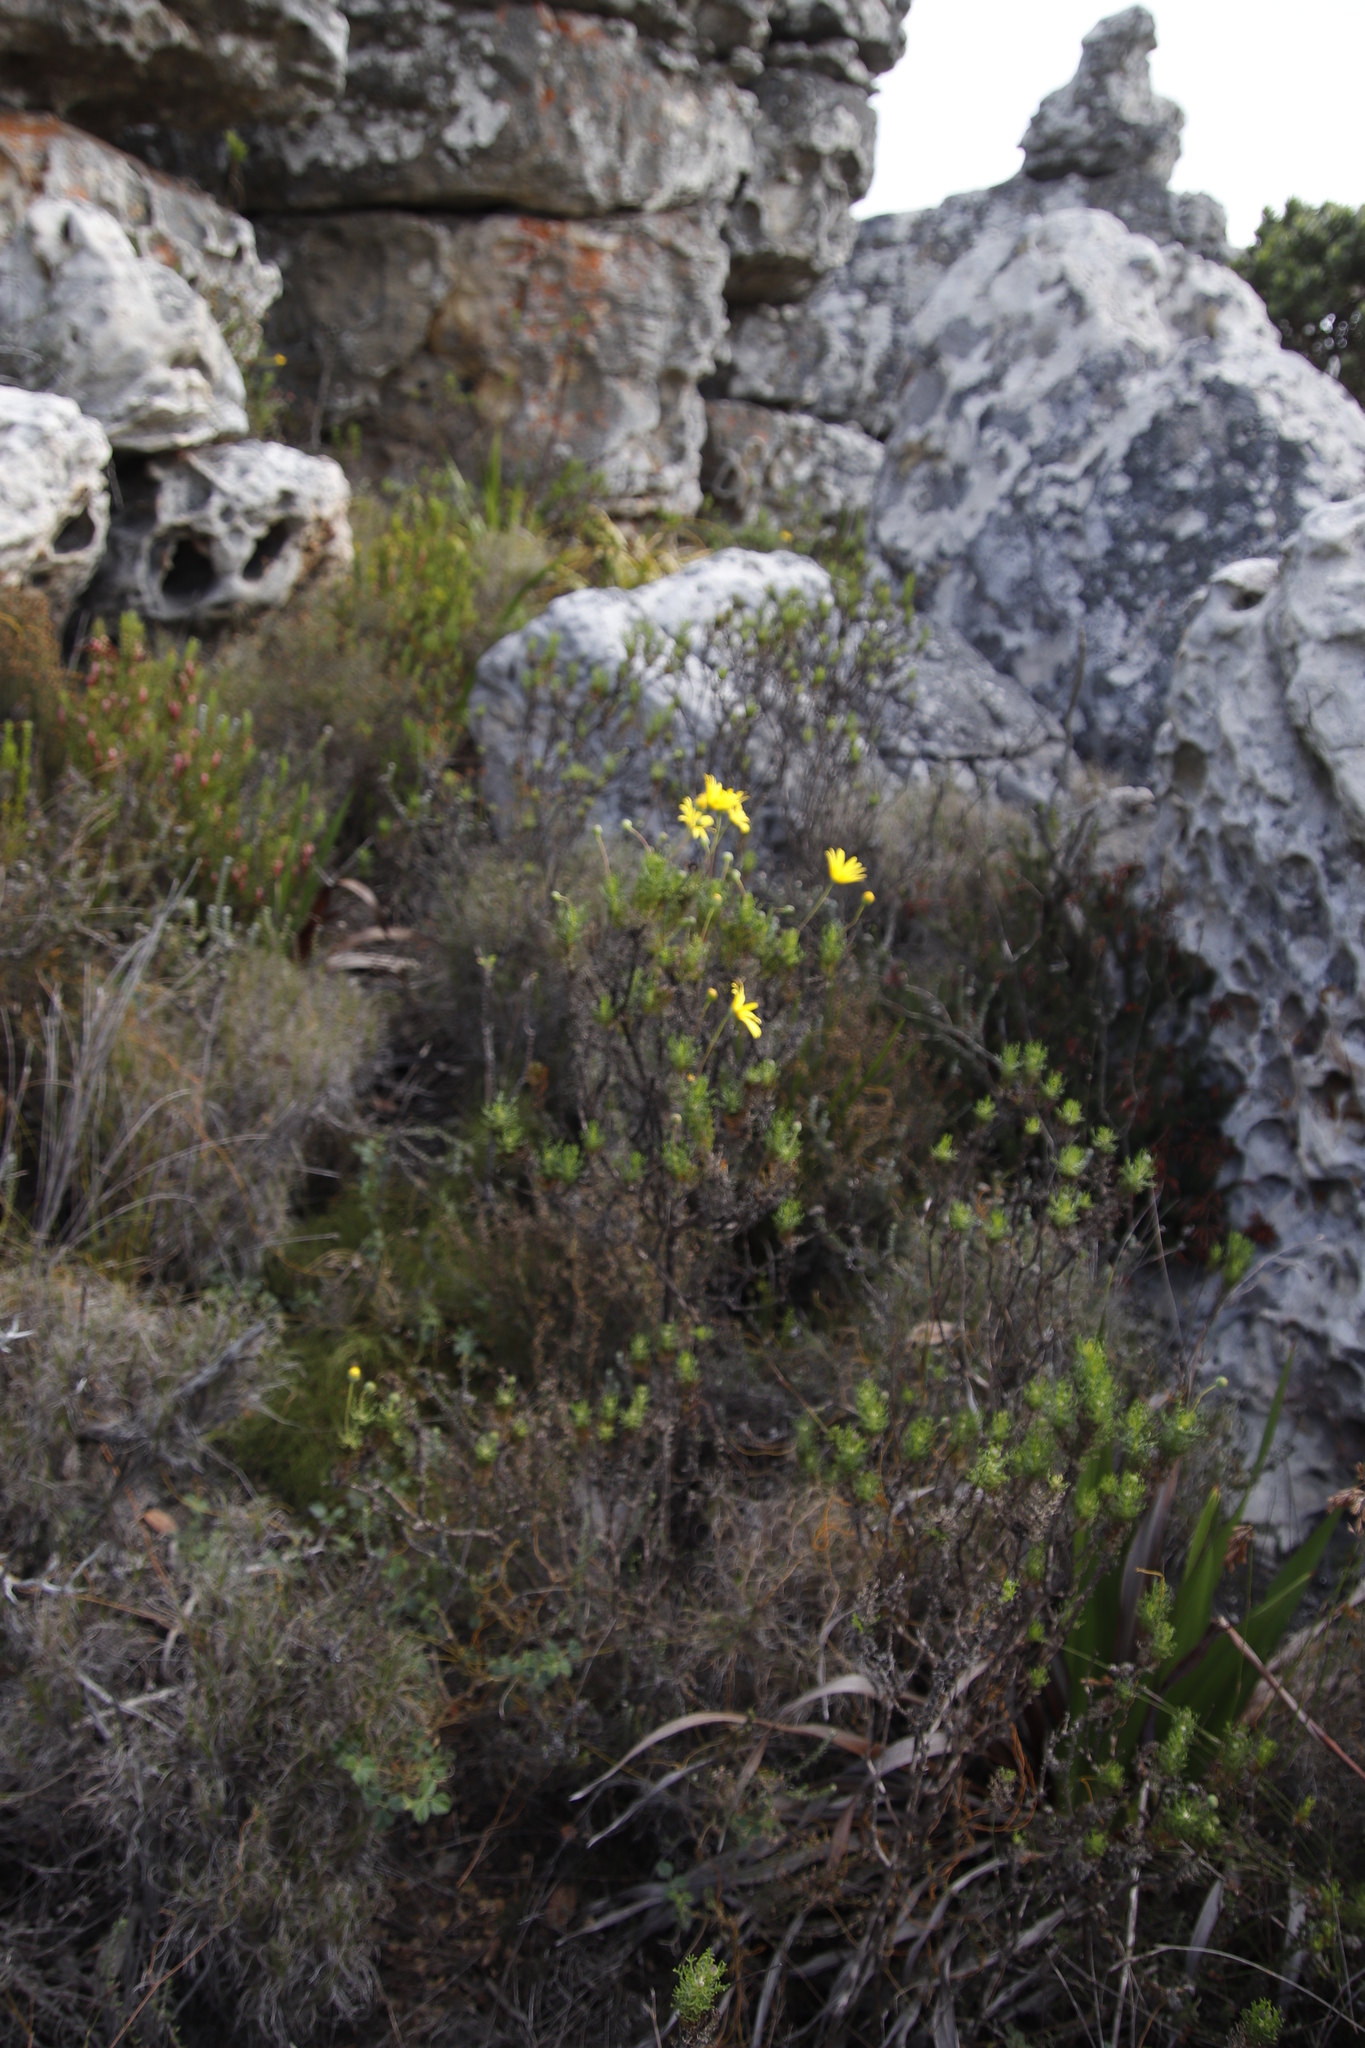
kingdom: Plantae
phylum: Tracheophyta
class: Magnoliopsida
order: Asterales
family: Asteraceae
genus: Euryops
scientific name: Euryops abrotanifolius
